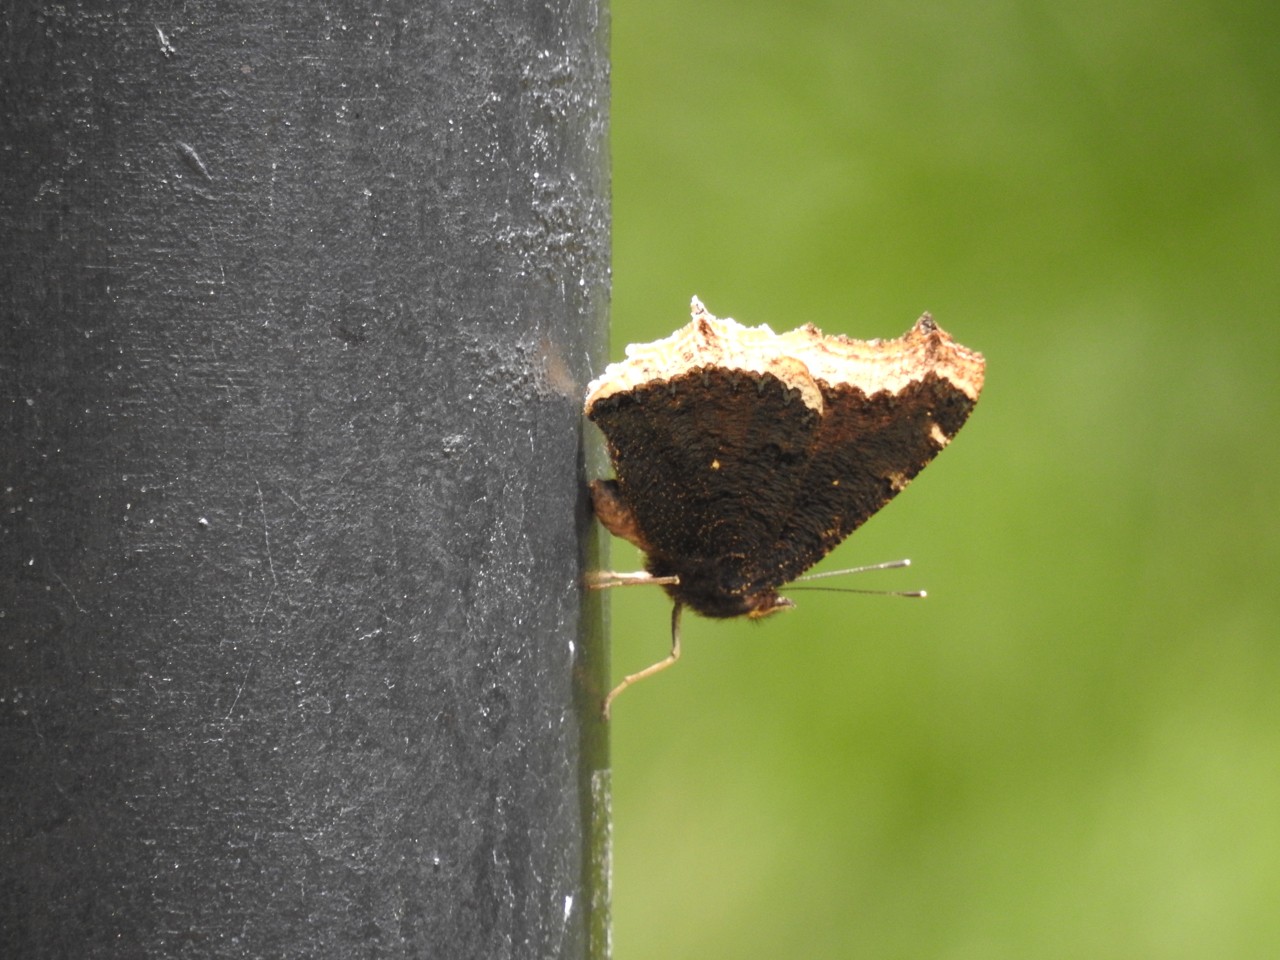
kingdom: Animalia
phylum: Arthropoda
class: Insecta
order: Lepidoptera
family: Nymphalidae
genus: Nymphalis
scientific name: Nymphalis antiopa
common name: Camberwell beauty
